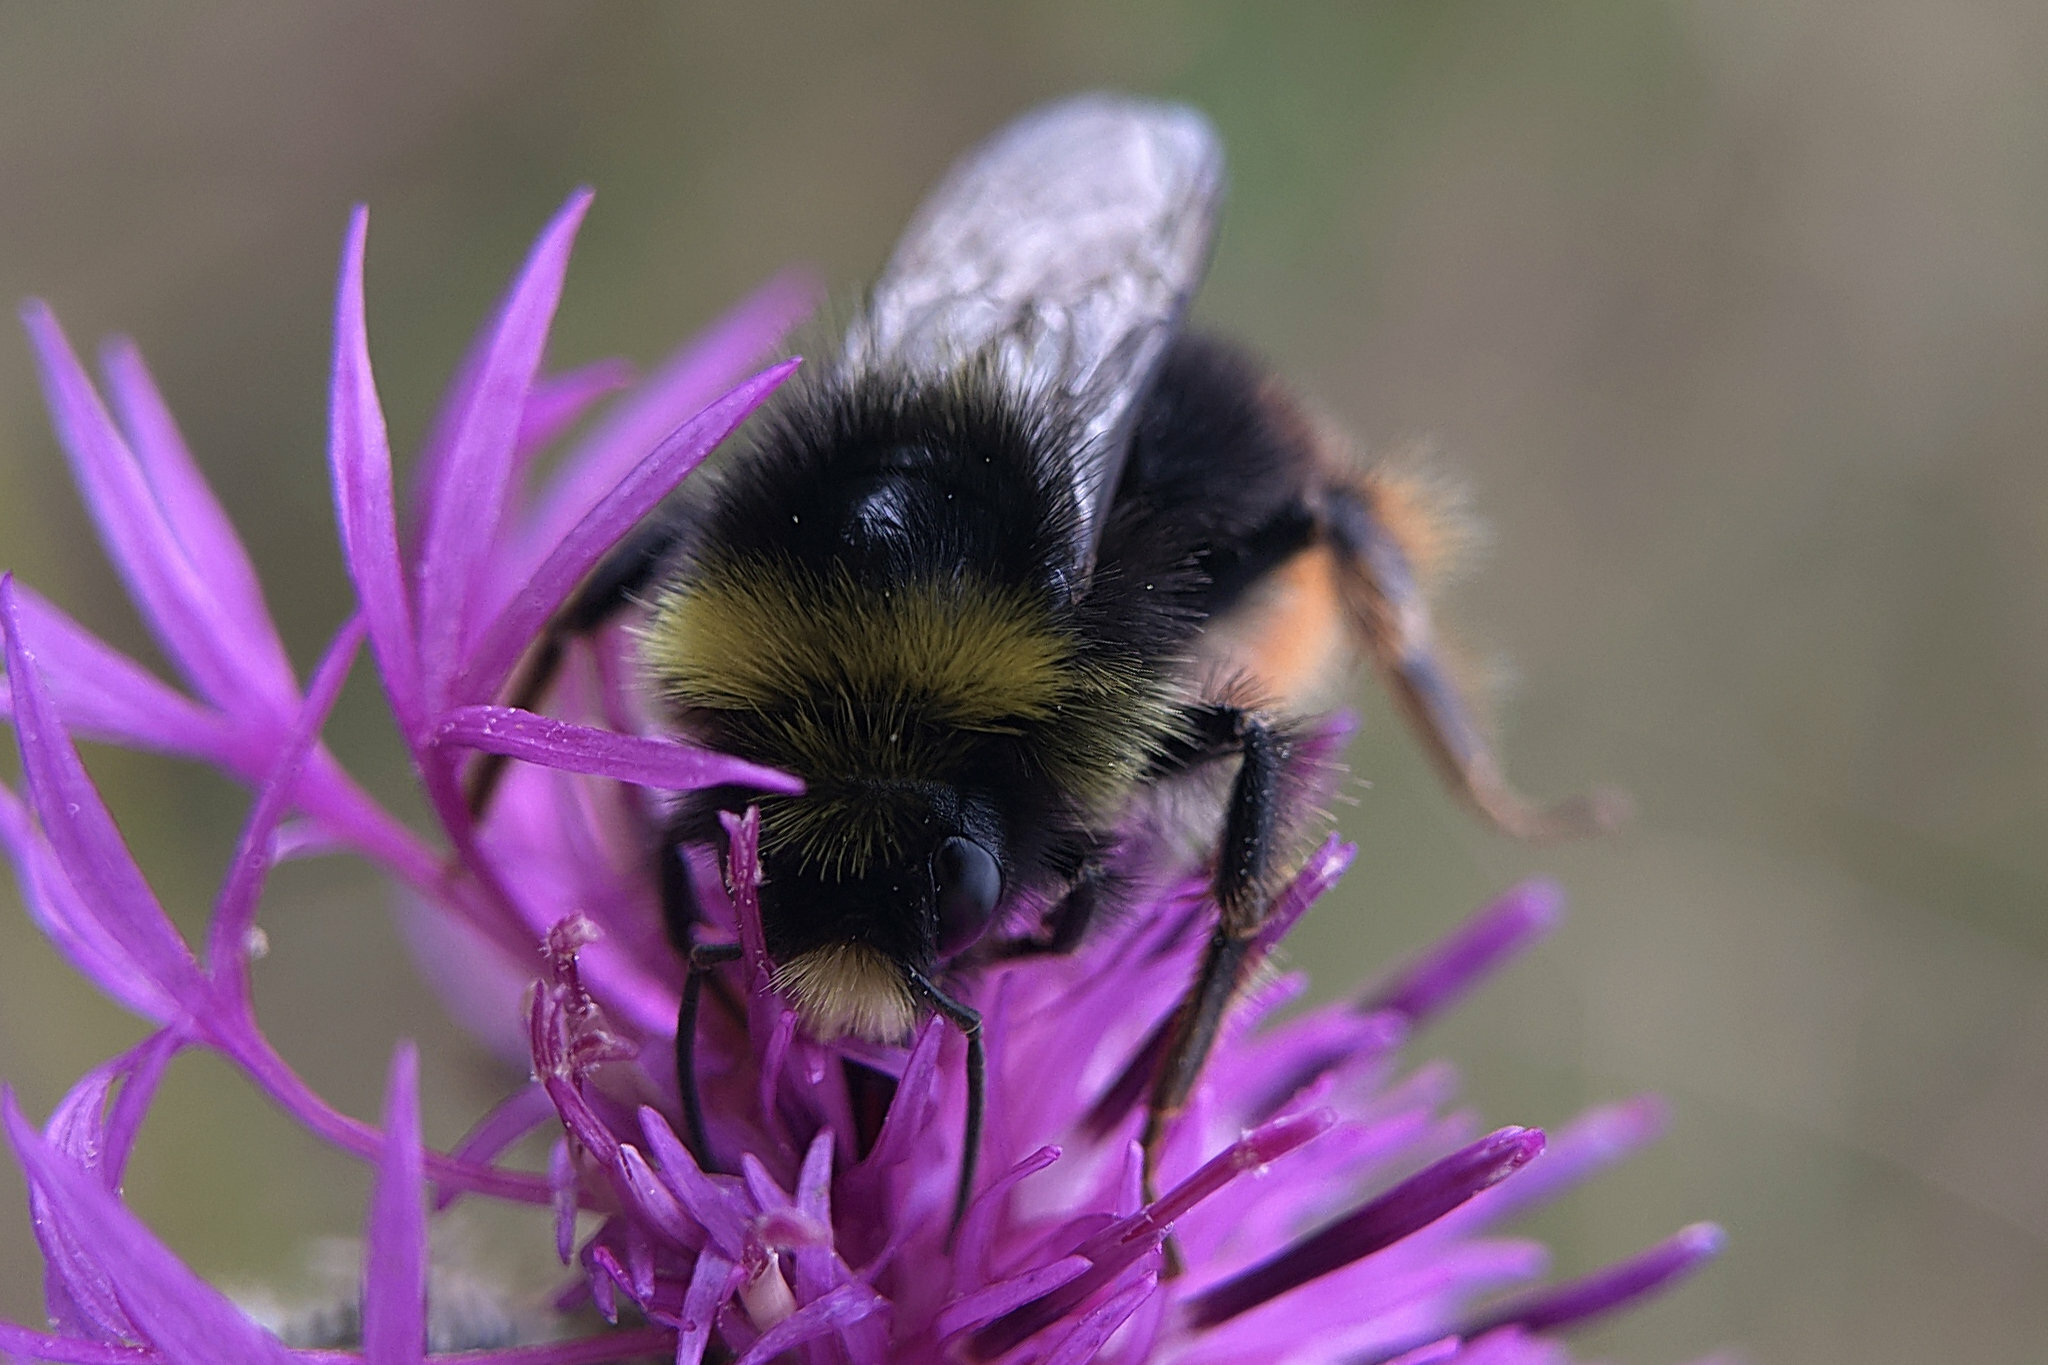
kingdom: Animalia
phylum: Arthropoda
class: Insecta
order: Hymenoptera
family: Apidae
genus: Bombus
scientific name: Bombus lapidarius
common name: Large red-tailed humble-bee
